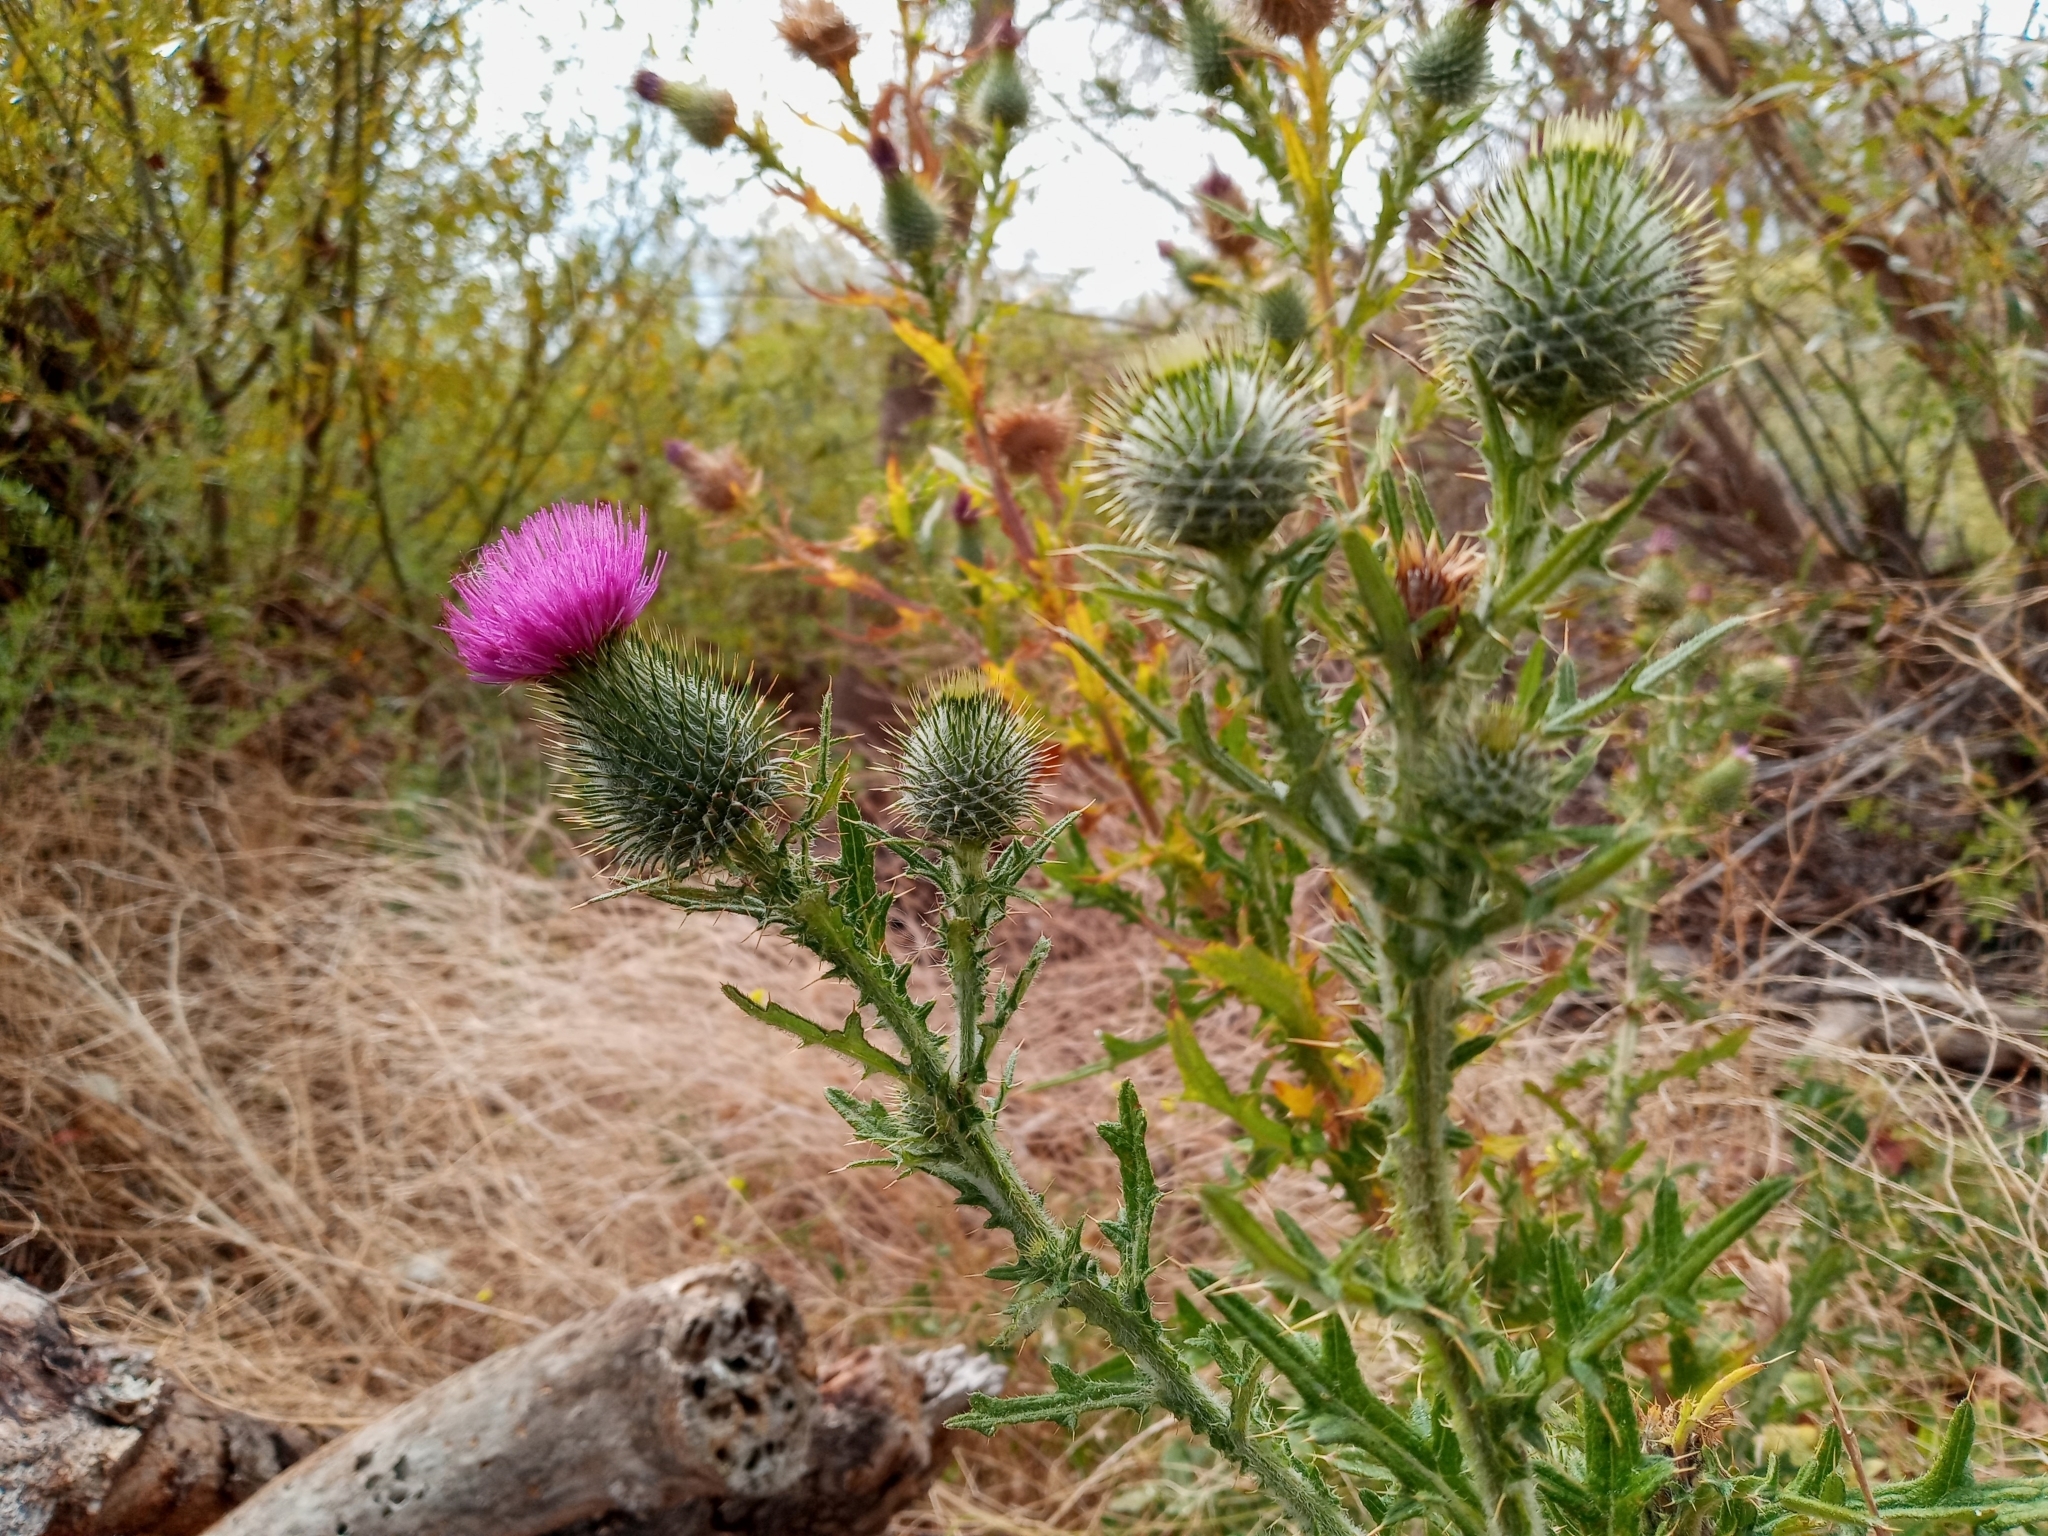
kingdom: Plantae
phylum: Tracheophyta
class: Magnoliopsida
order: Asterales
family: Asteraceae
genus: Cirsium
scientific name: Cirsium vulgare
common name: Bull thistle
